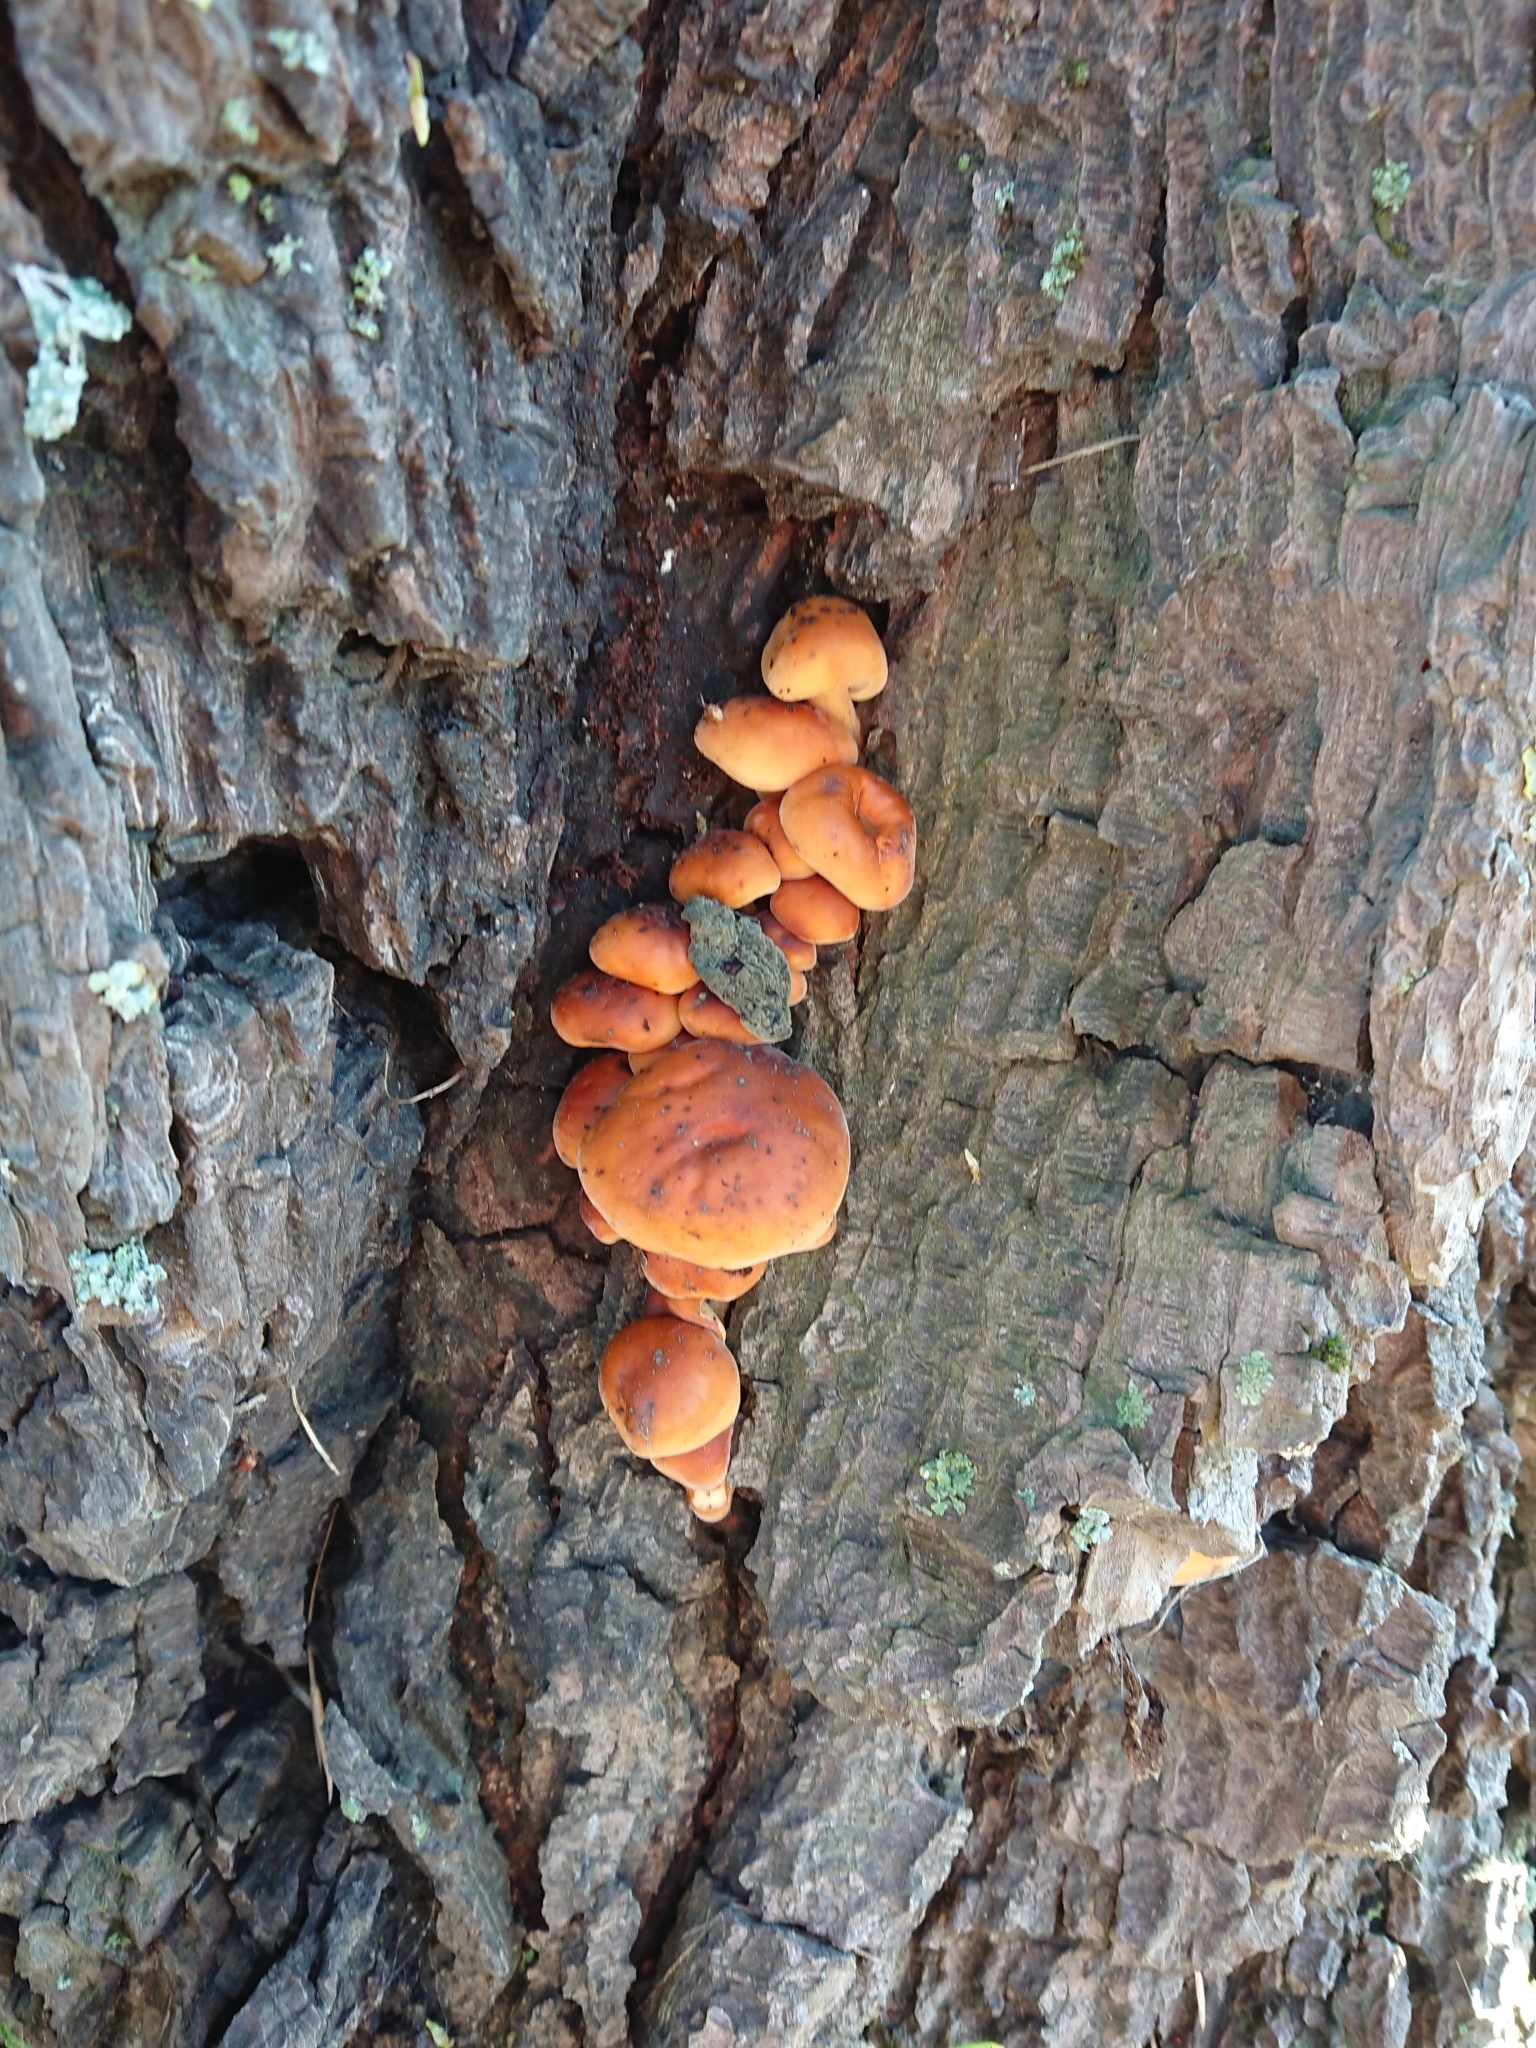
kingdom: Fungi
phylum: Basidiomycota
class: Agaricomycetes
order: Agaricales
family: Physalacriaceae
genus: Flammulina
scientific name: Flammulina velutipes
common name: Velvet shank
